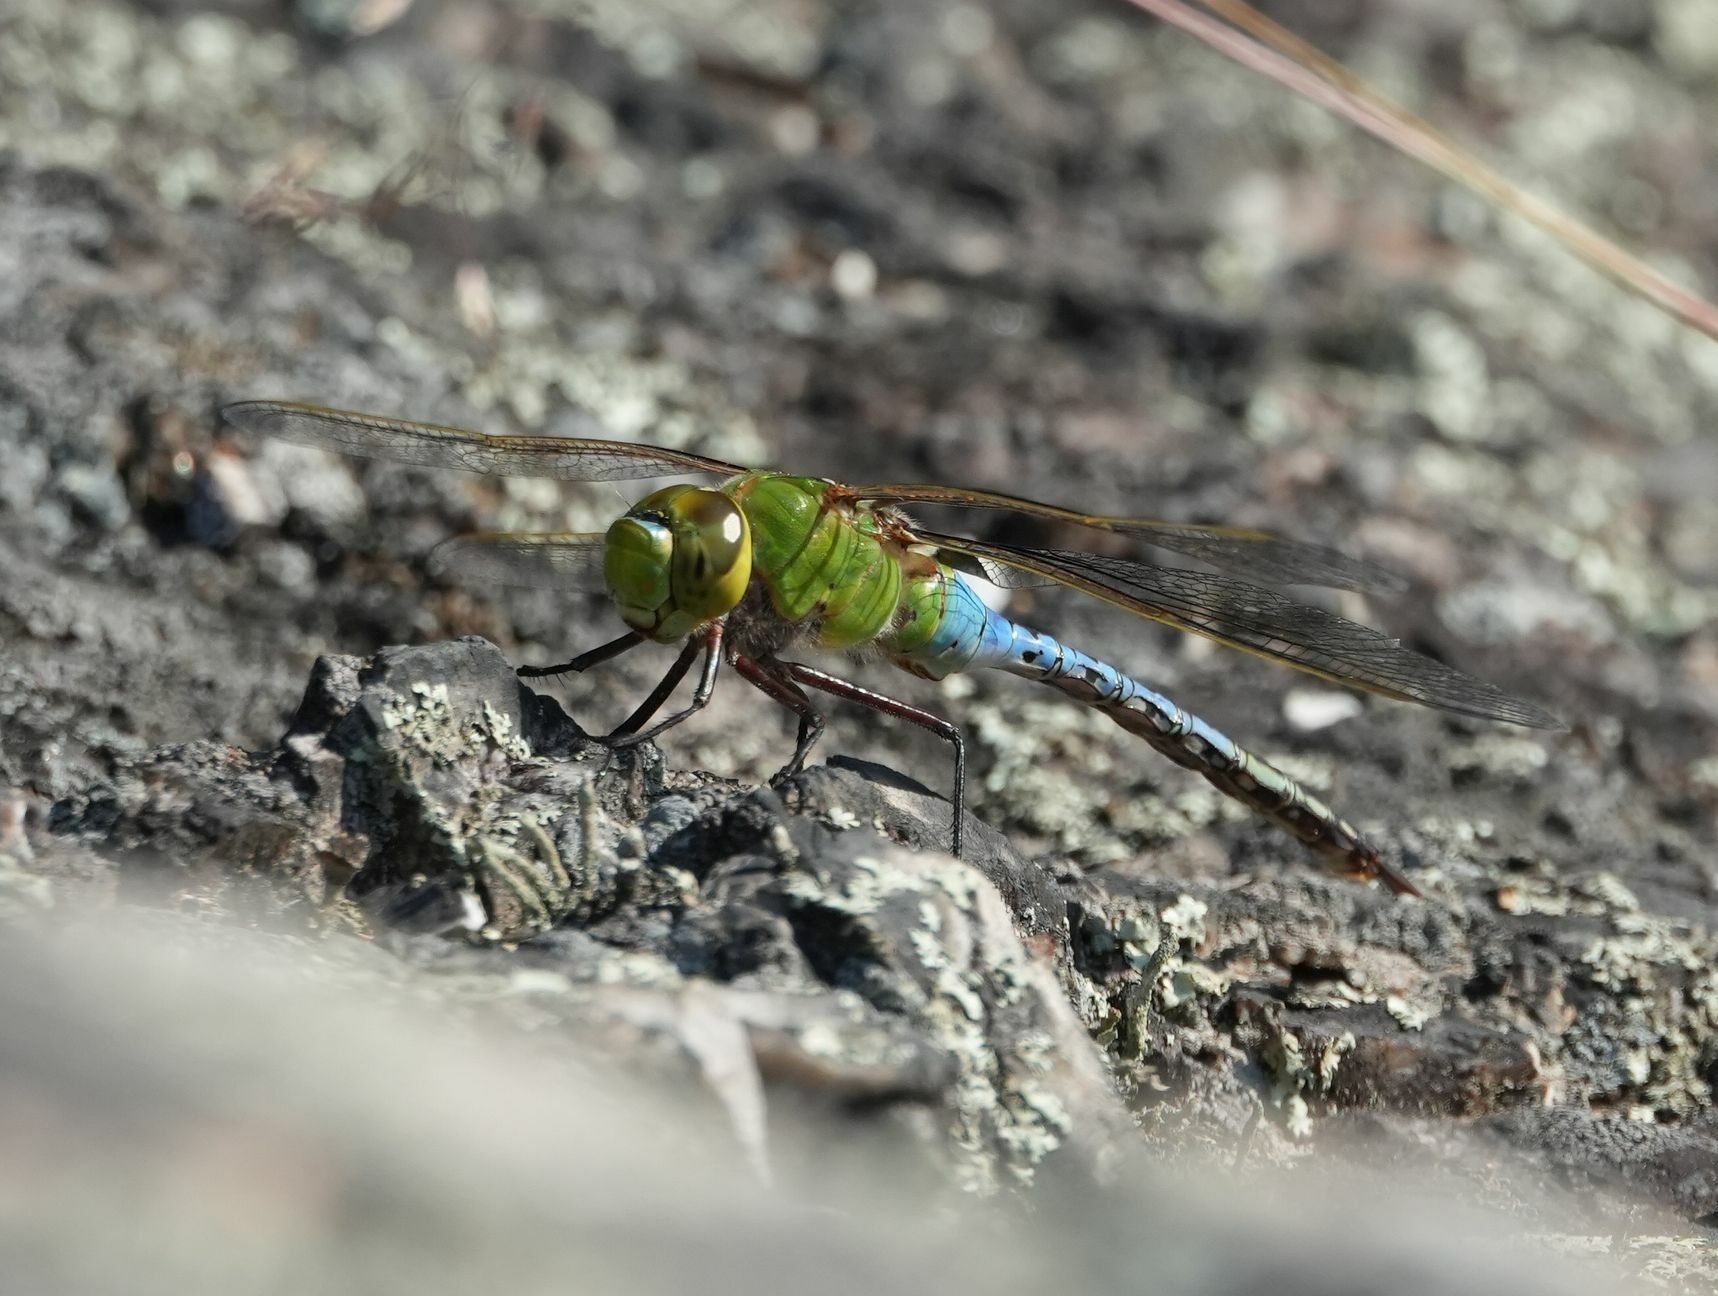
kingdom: Animalia
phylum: Arthropoda
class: Insecta
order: Odonata
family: Aeshnidae
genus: Anax
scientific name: Anax junius
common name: Common green darner
